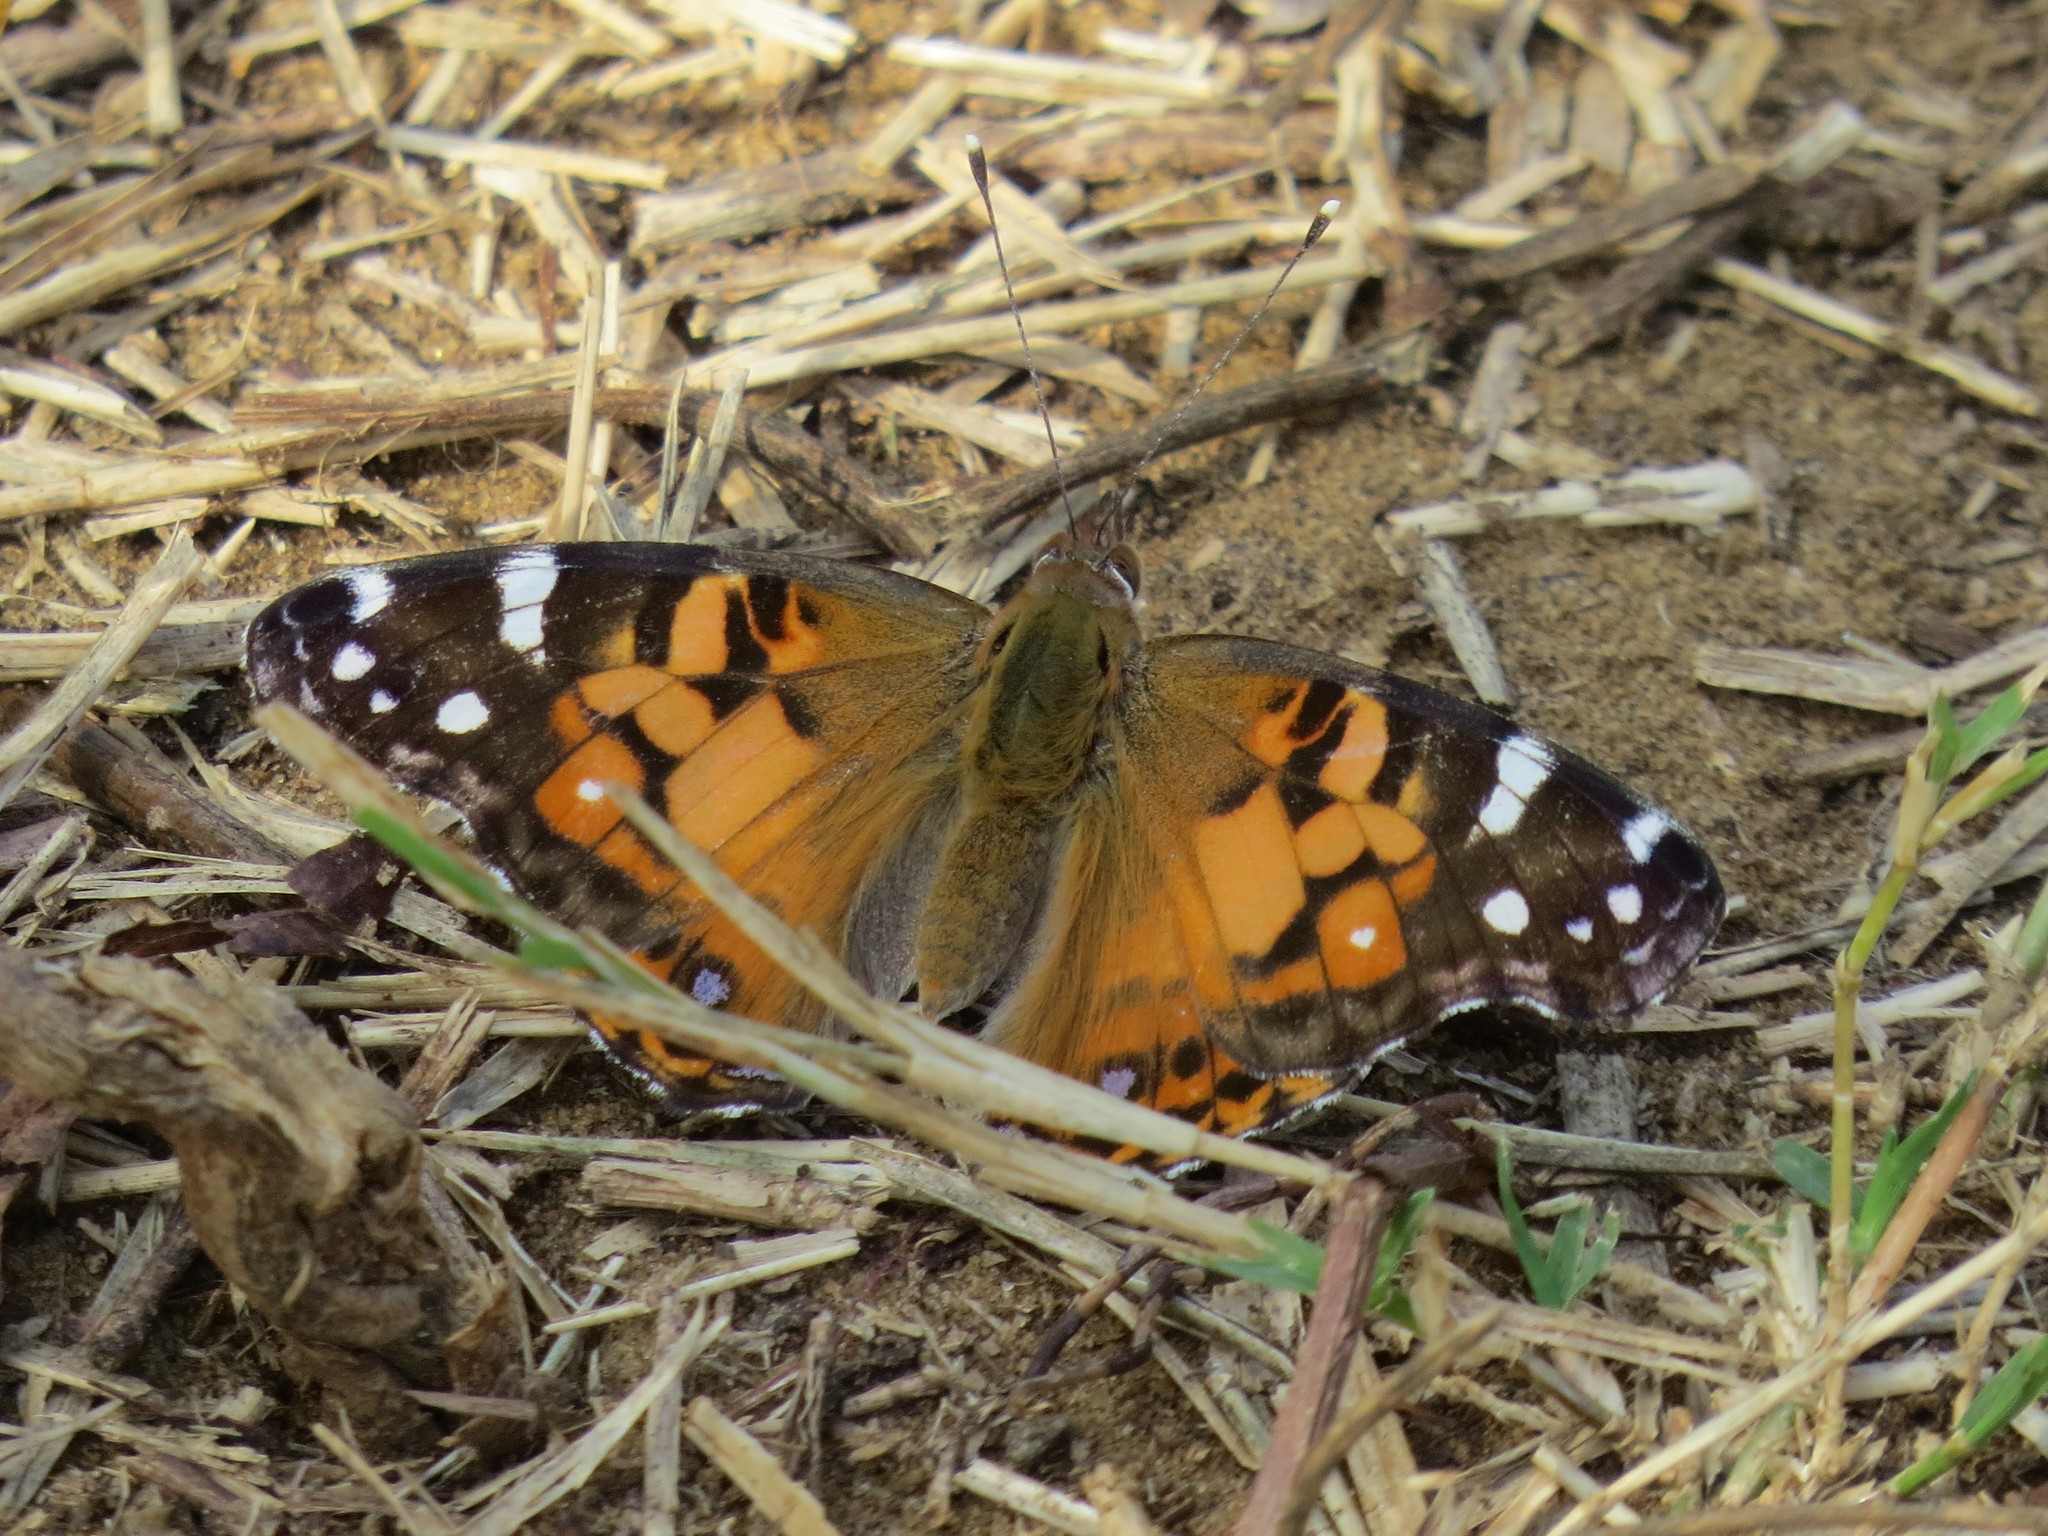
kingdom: Animalia
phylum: Arthropoda
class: Insecta
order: Lepidoptera
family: Nymphalidae
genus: Vanessa
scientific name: Vanessa virginiensis
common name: American lady
